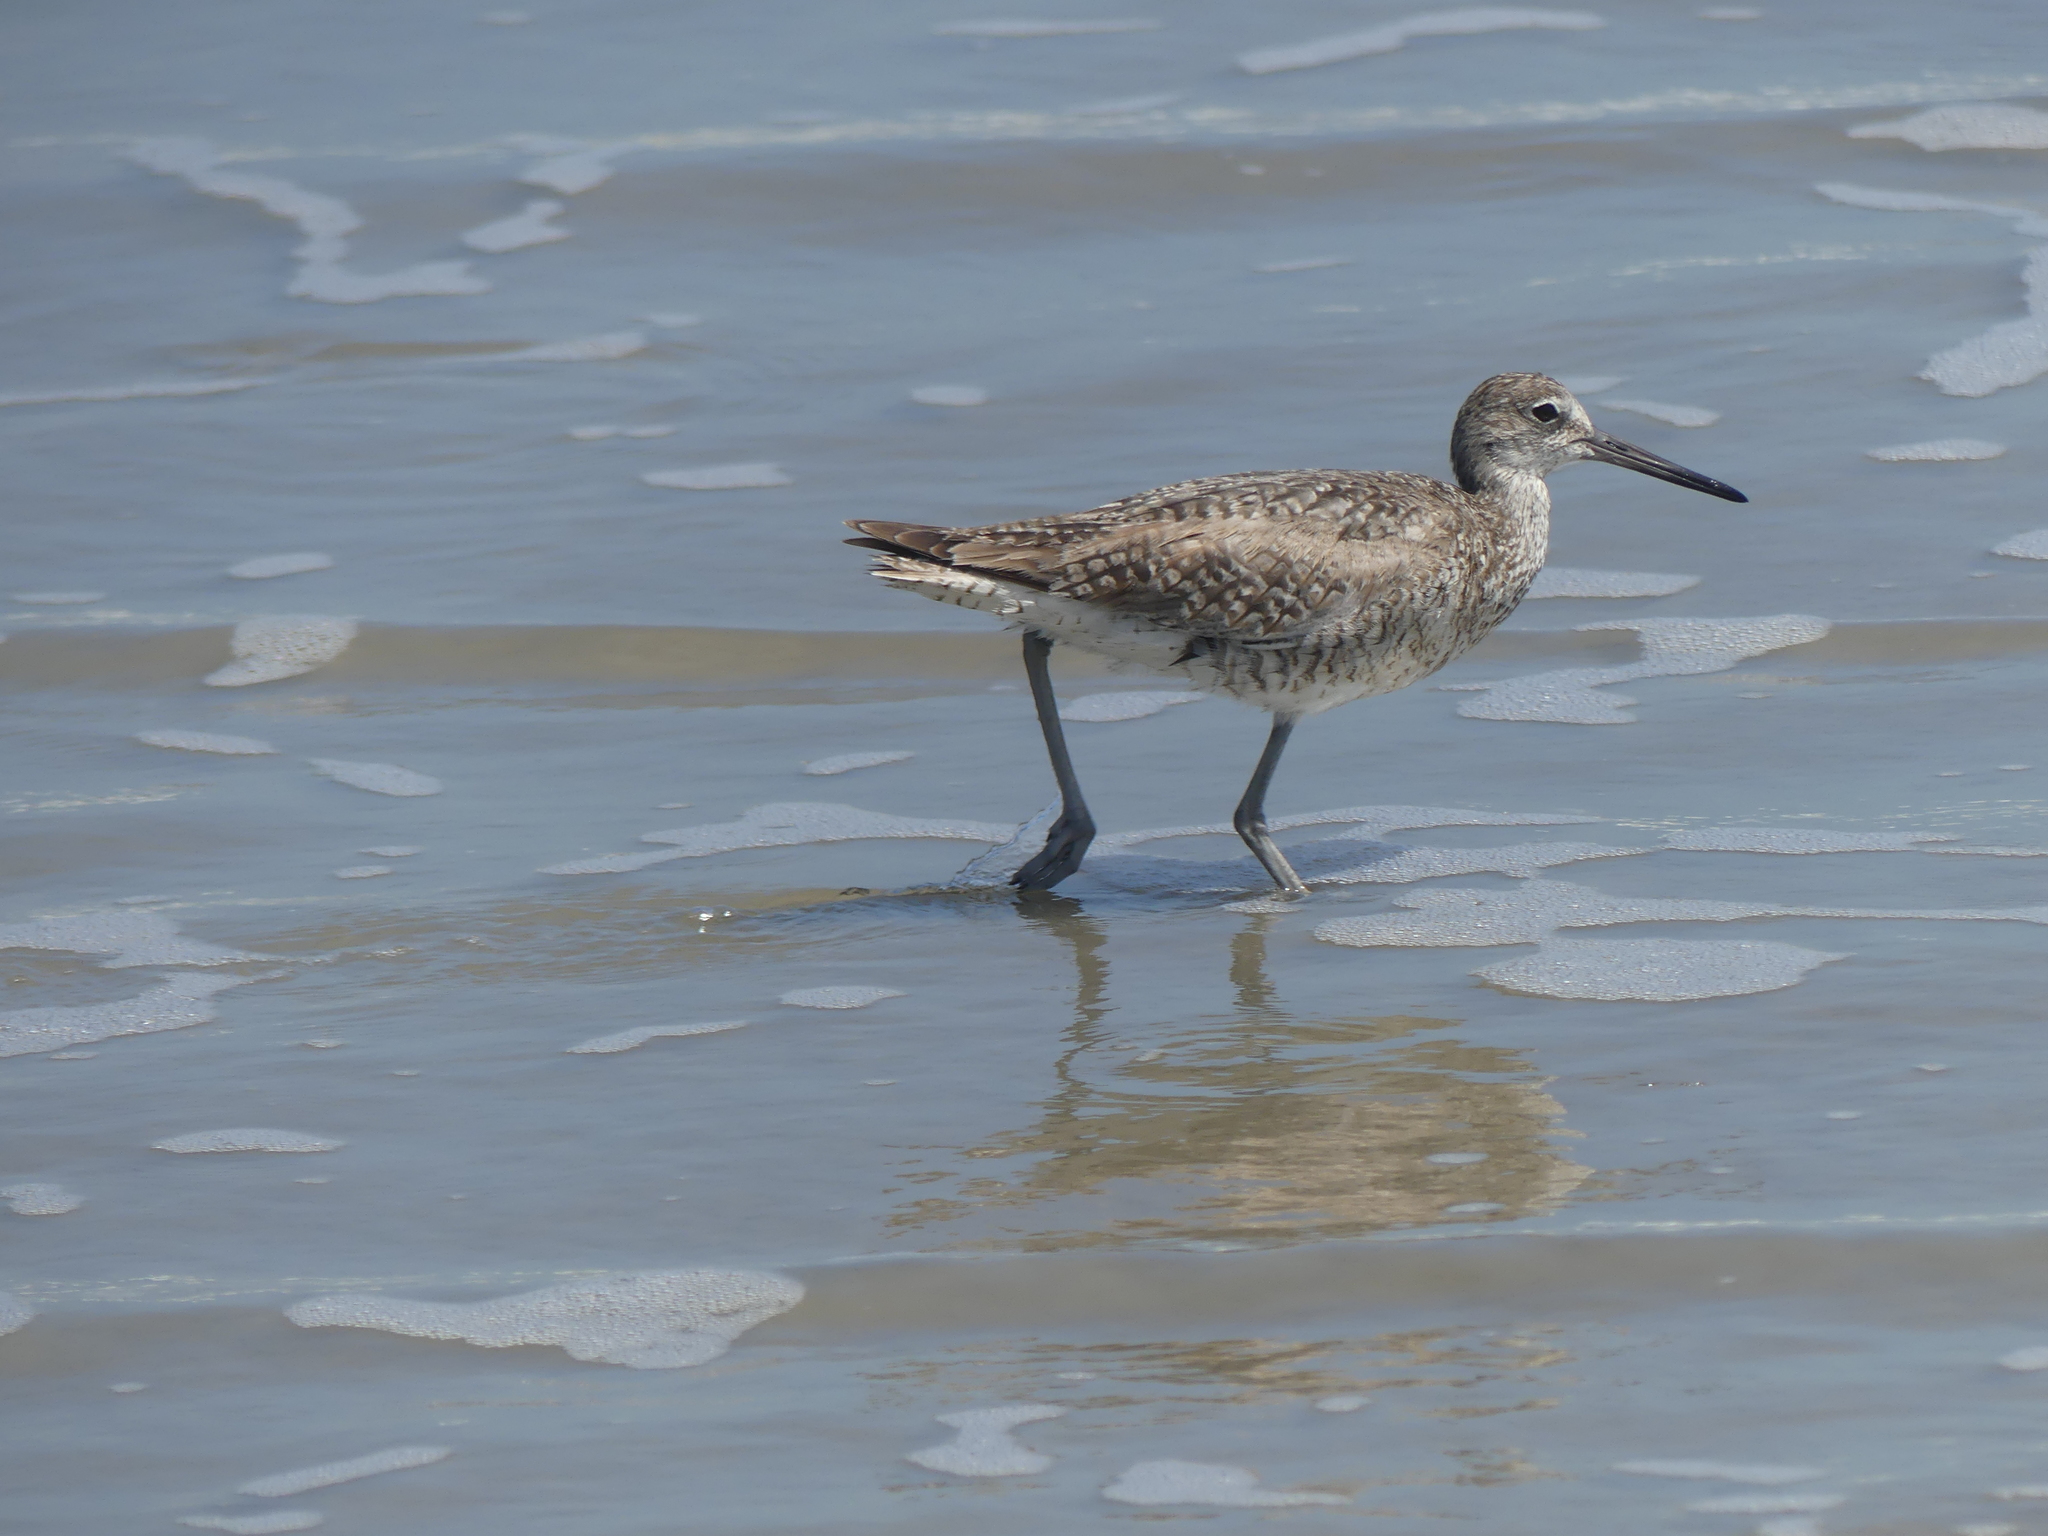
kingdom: Animalia
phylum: Chordata
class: Aves
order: Charadriiformes
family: Scolopacidae
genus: Tringa
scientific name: Tringa semipalmata
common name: Willet
